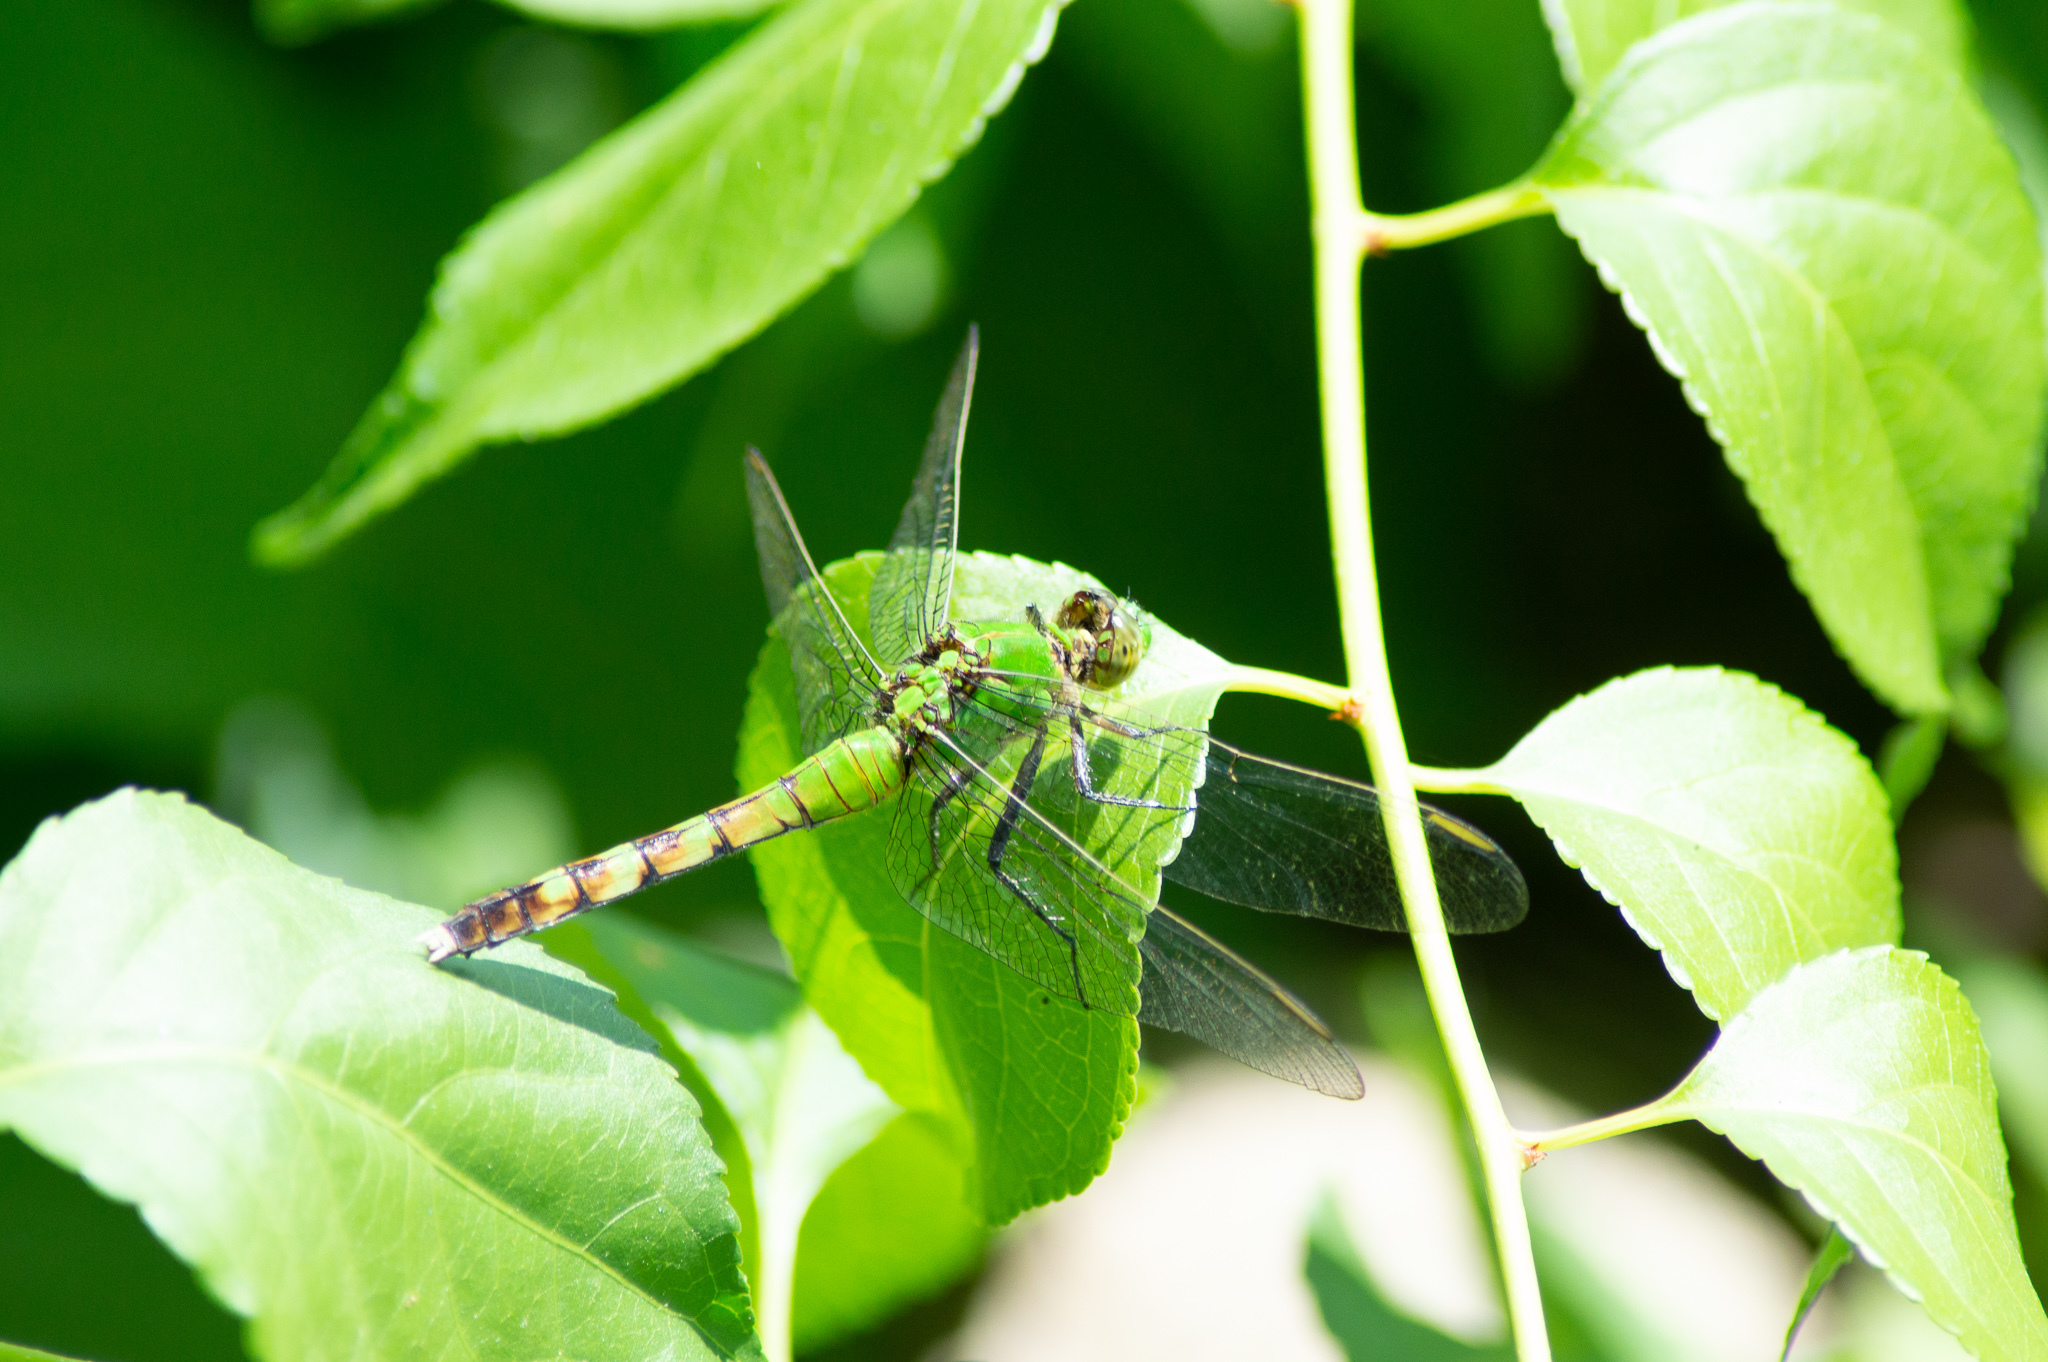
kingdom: Animalia
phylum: Arthropoda
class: Insecta
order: Odonata
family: Libellulidae
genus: Erythemis
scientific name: Erythemis simplicicollis
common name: Eastern pondhawk
